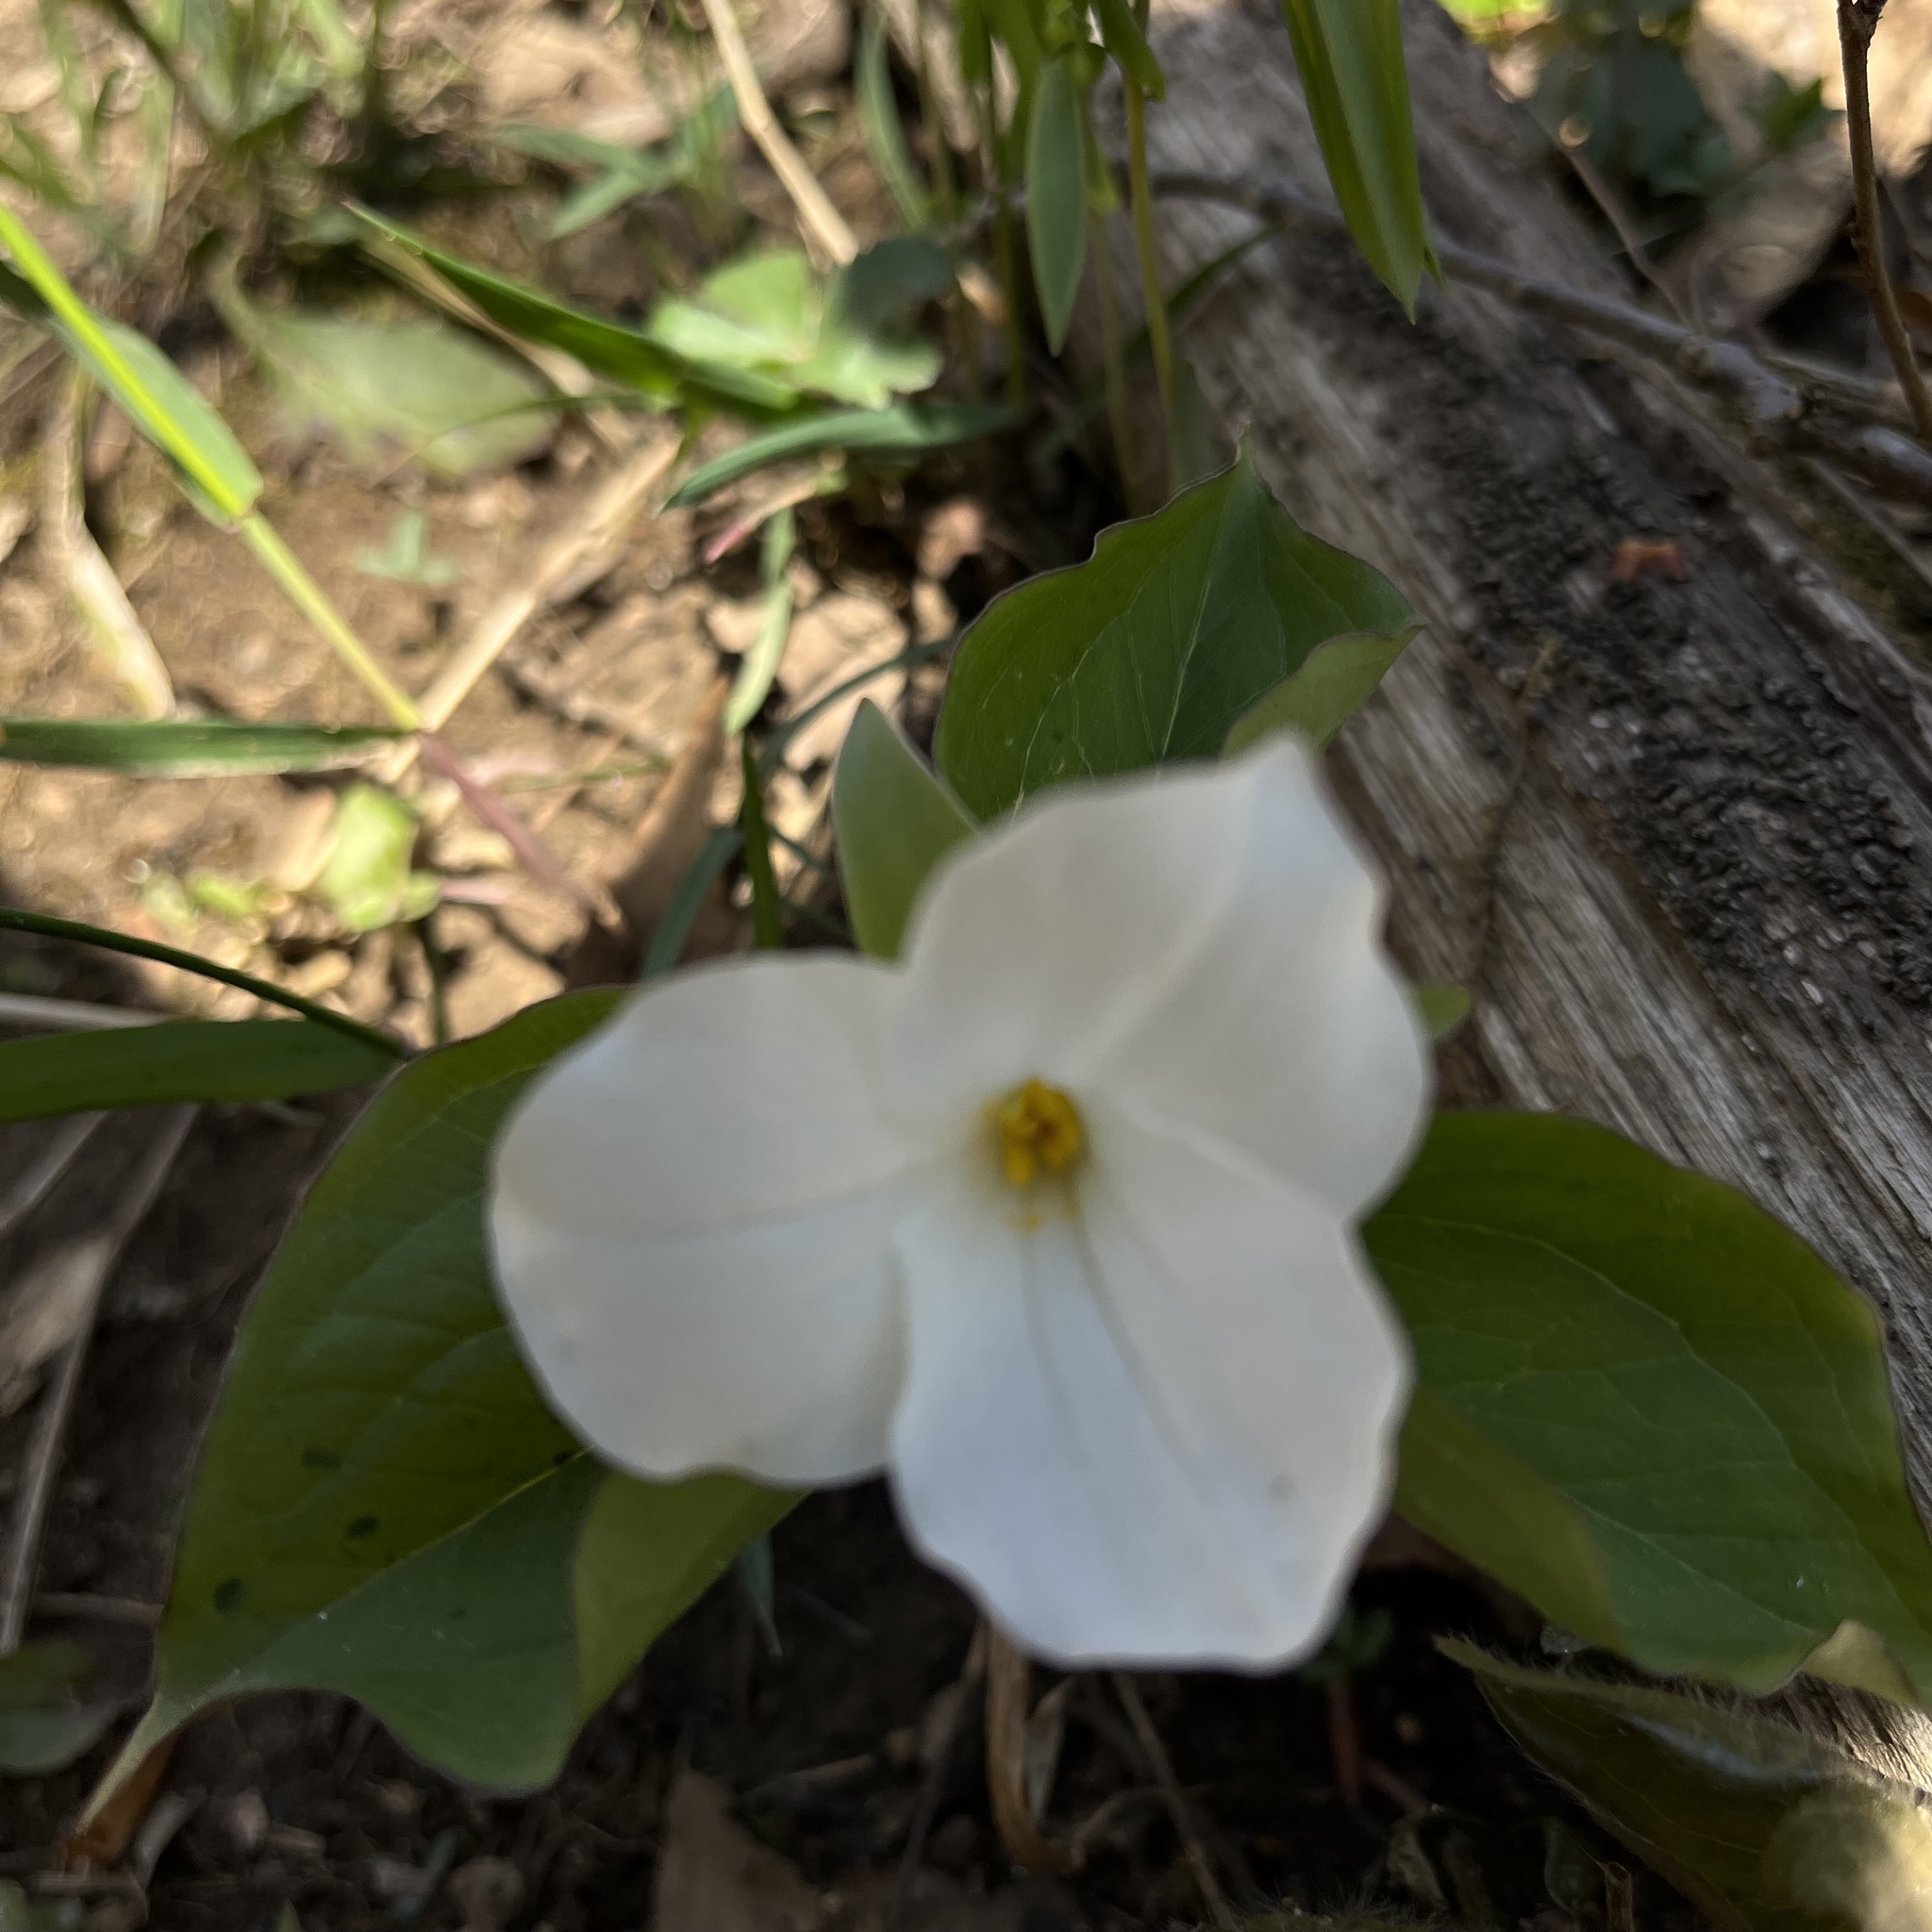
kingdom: Plantae
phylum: Tracheophyta
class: Liliopsida
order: Liliales
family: Melanthiaceae
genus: Trillium
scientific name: Trillium grandiflorum
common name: Great white trillium
